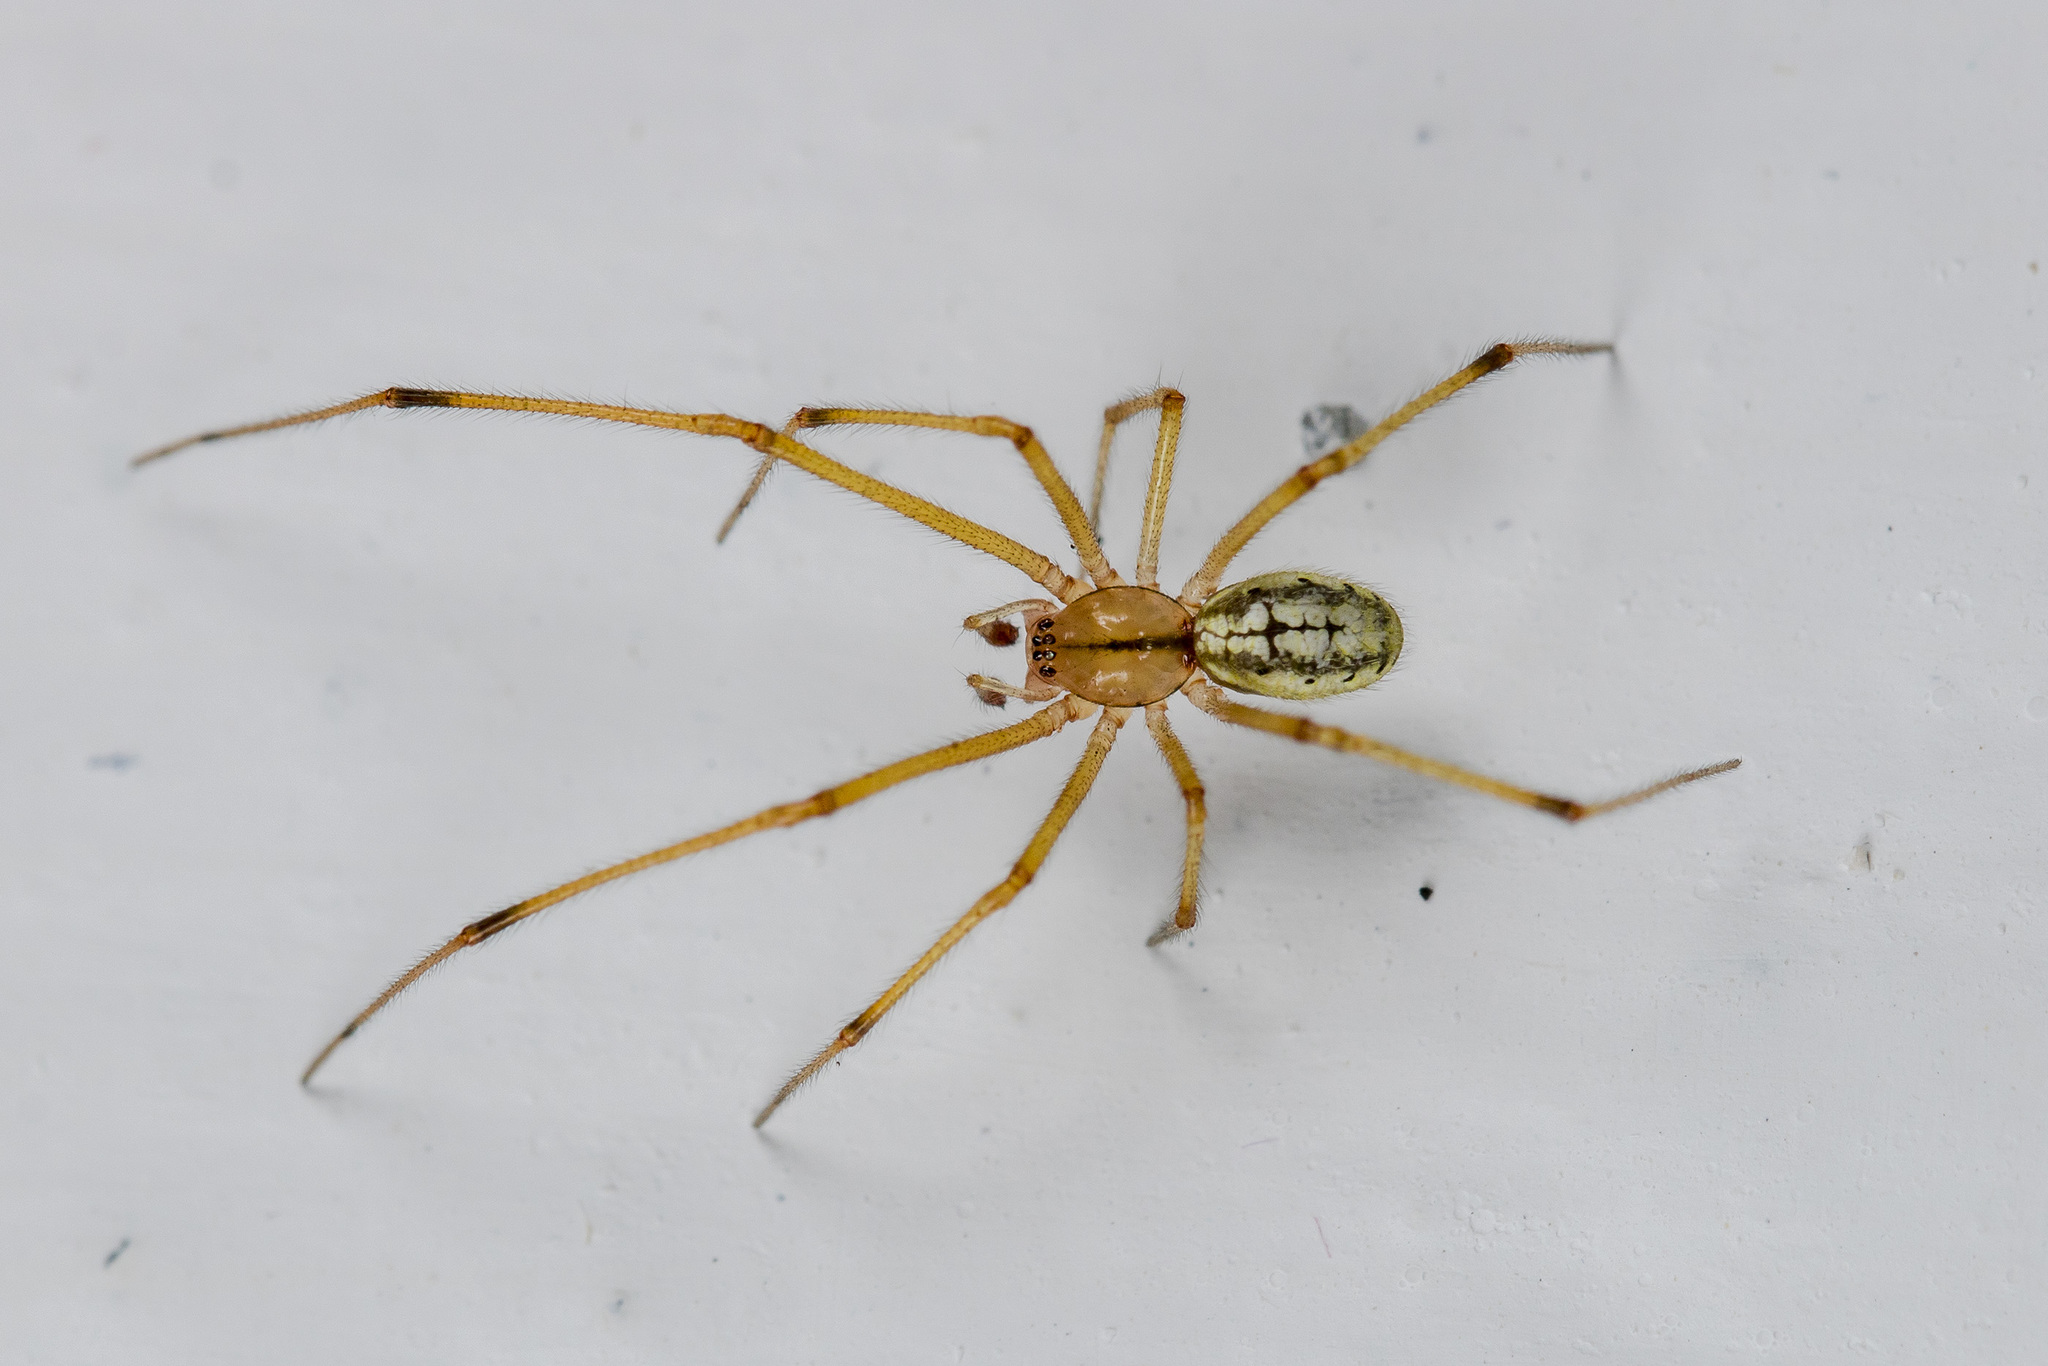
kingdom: Animalia
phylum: Arthropoda
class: Arachnida
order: Araneae
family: Theridiidae
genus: Enoplognatha
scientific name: Enoplognatha submargarita
